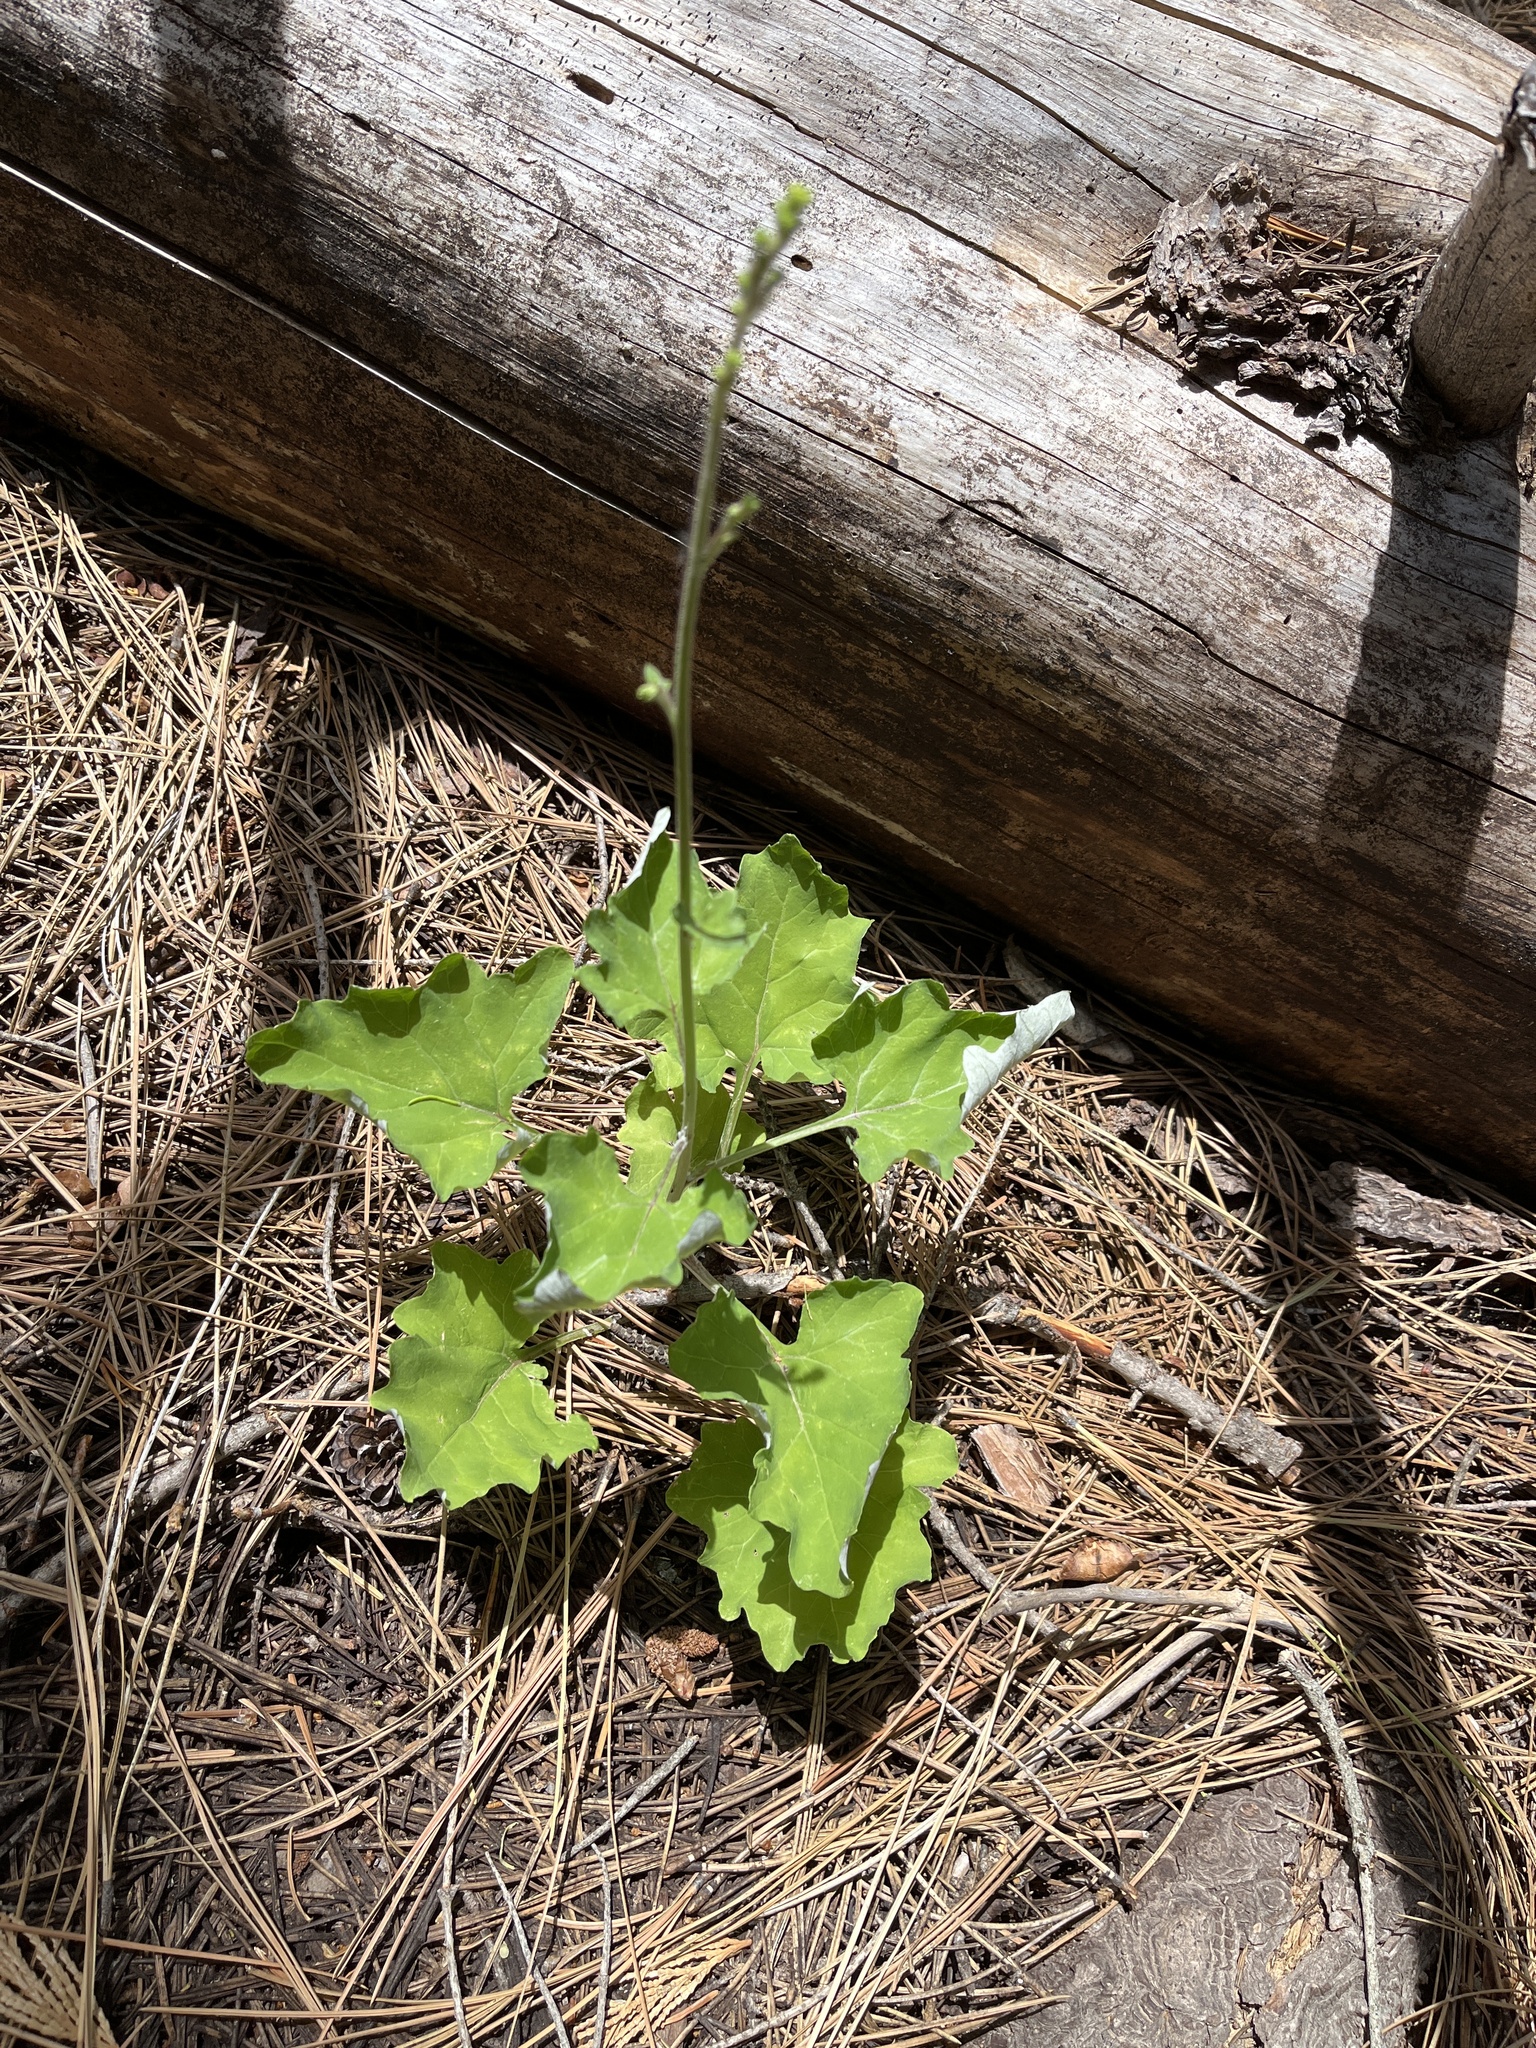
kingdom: Plantae
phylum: Tracheophyta
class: Magnoliopsida
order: Asterales
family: Asteraceae
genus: Adenocaulon
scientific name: Adenocaulon bicolor
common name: Trailplant
